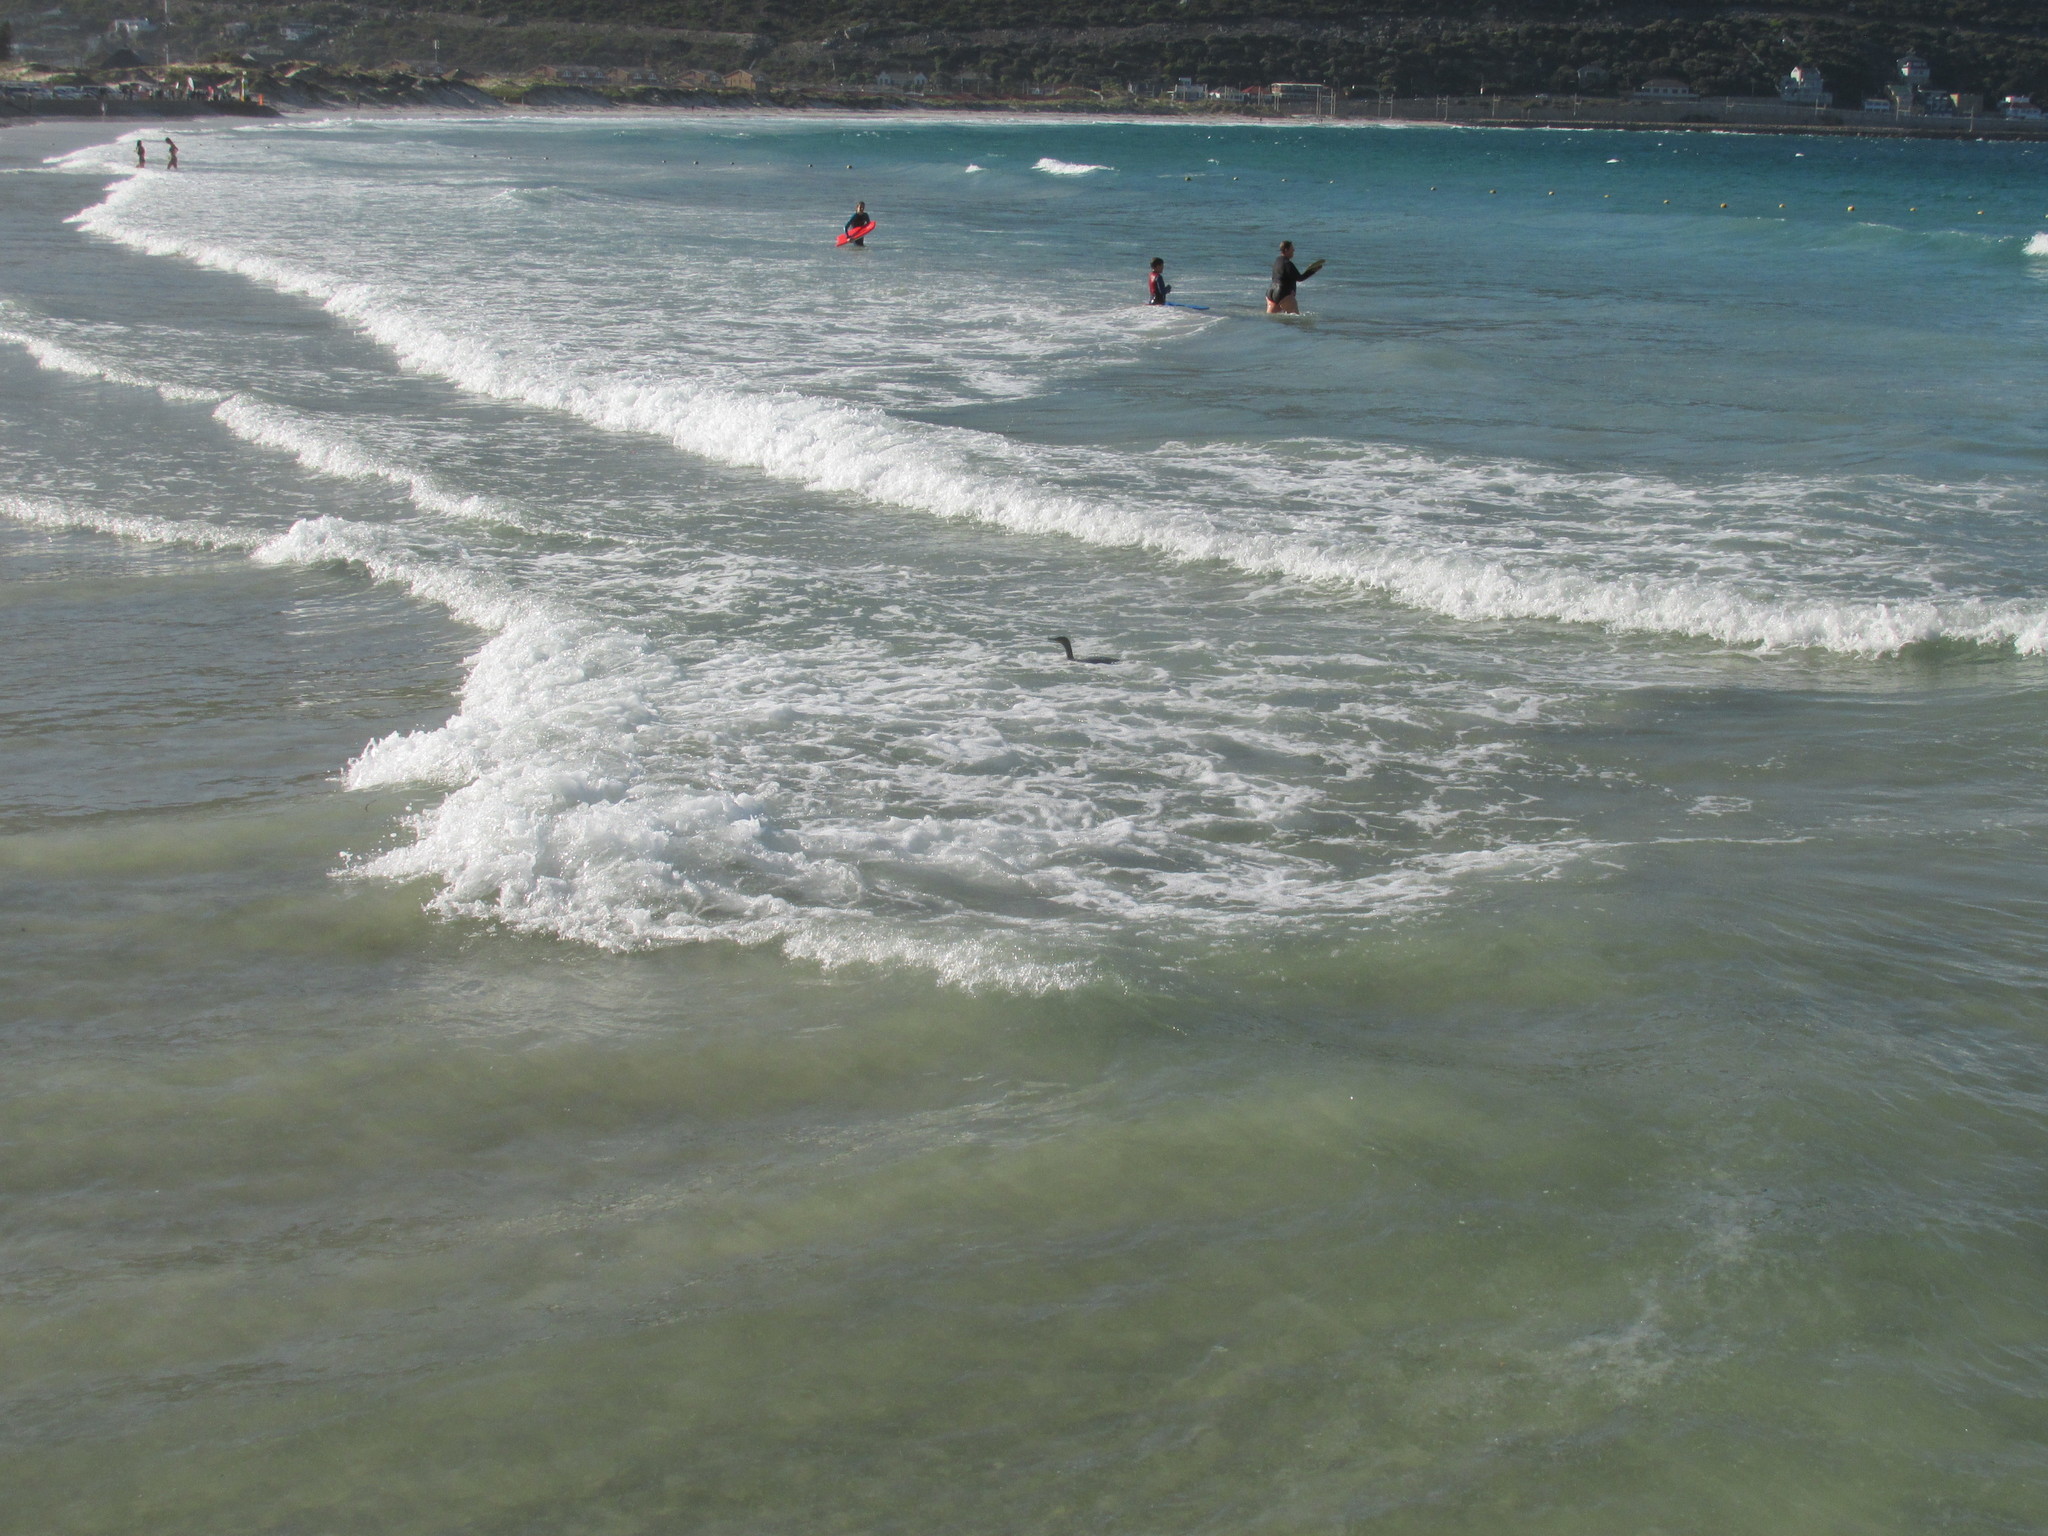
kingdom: Animalia
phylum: Chordata
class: Aves
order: Suliformes
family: Phalacrocoracidae
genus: Phalacrocorax
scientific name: Phalacrocorax capensis
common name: Cape cormorant
